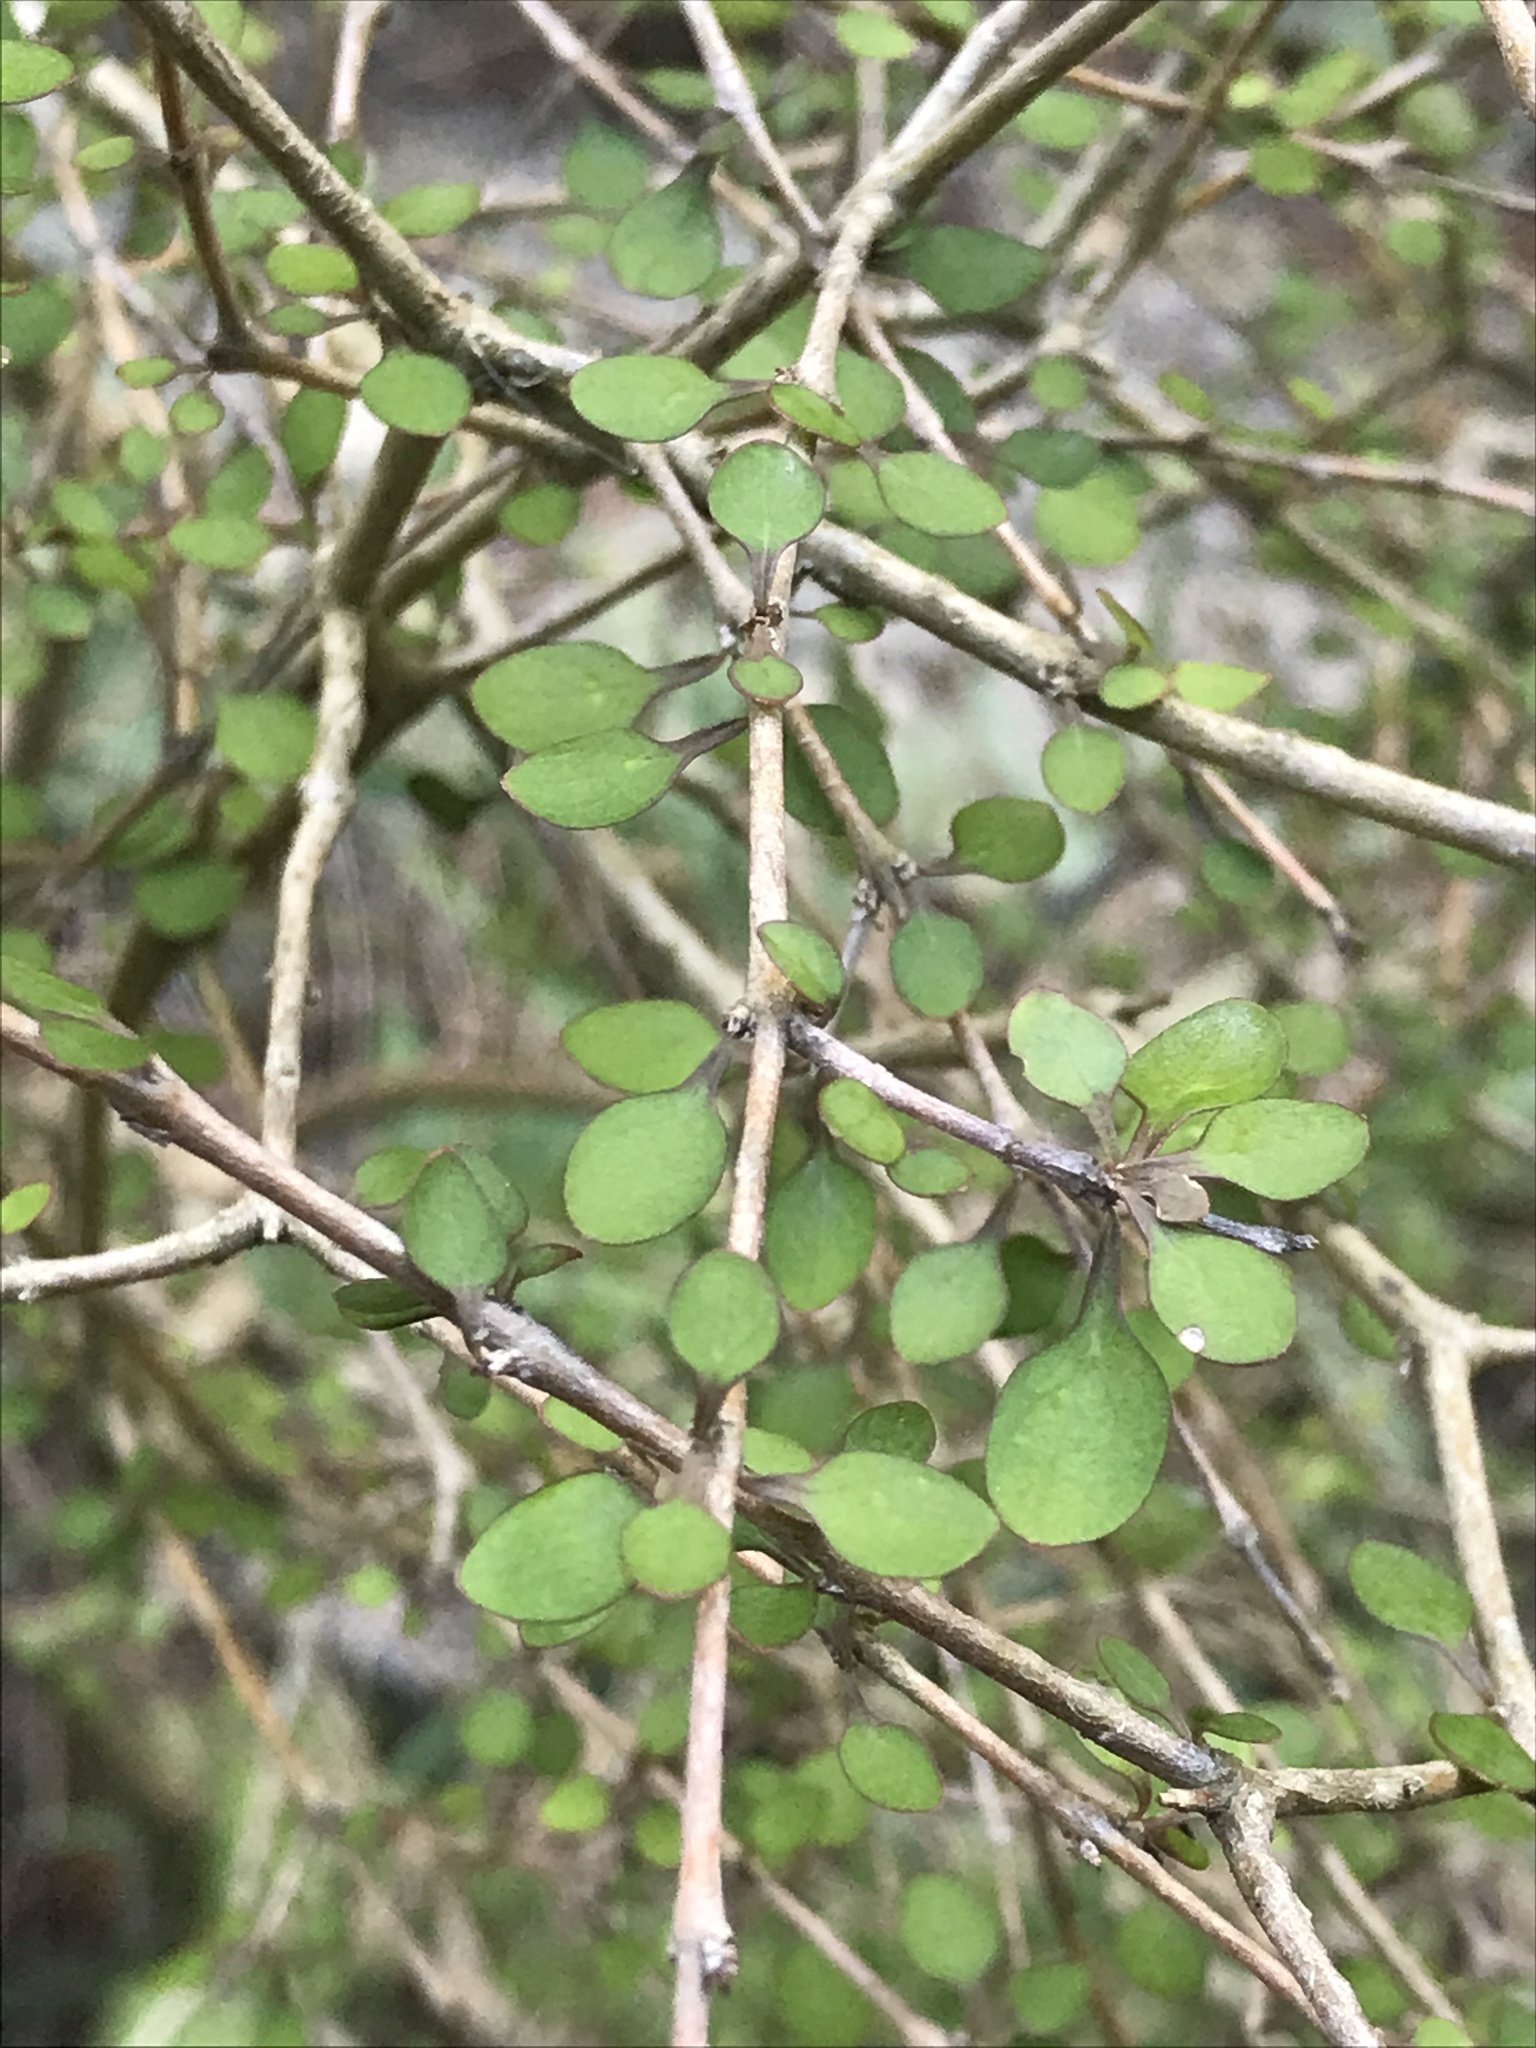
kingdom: Plantae
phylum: Tracheophyta
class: Magnoliopsida
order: Gentianales
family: Rubiaceae
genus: Coprosma
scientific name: Coprosma virescens
